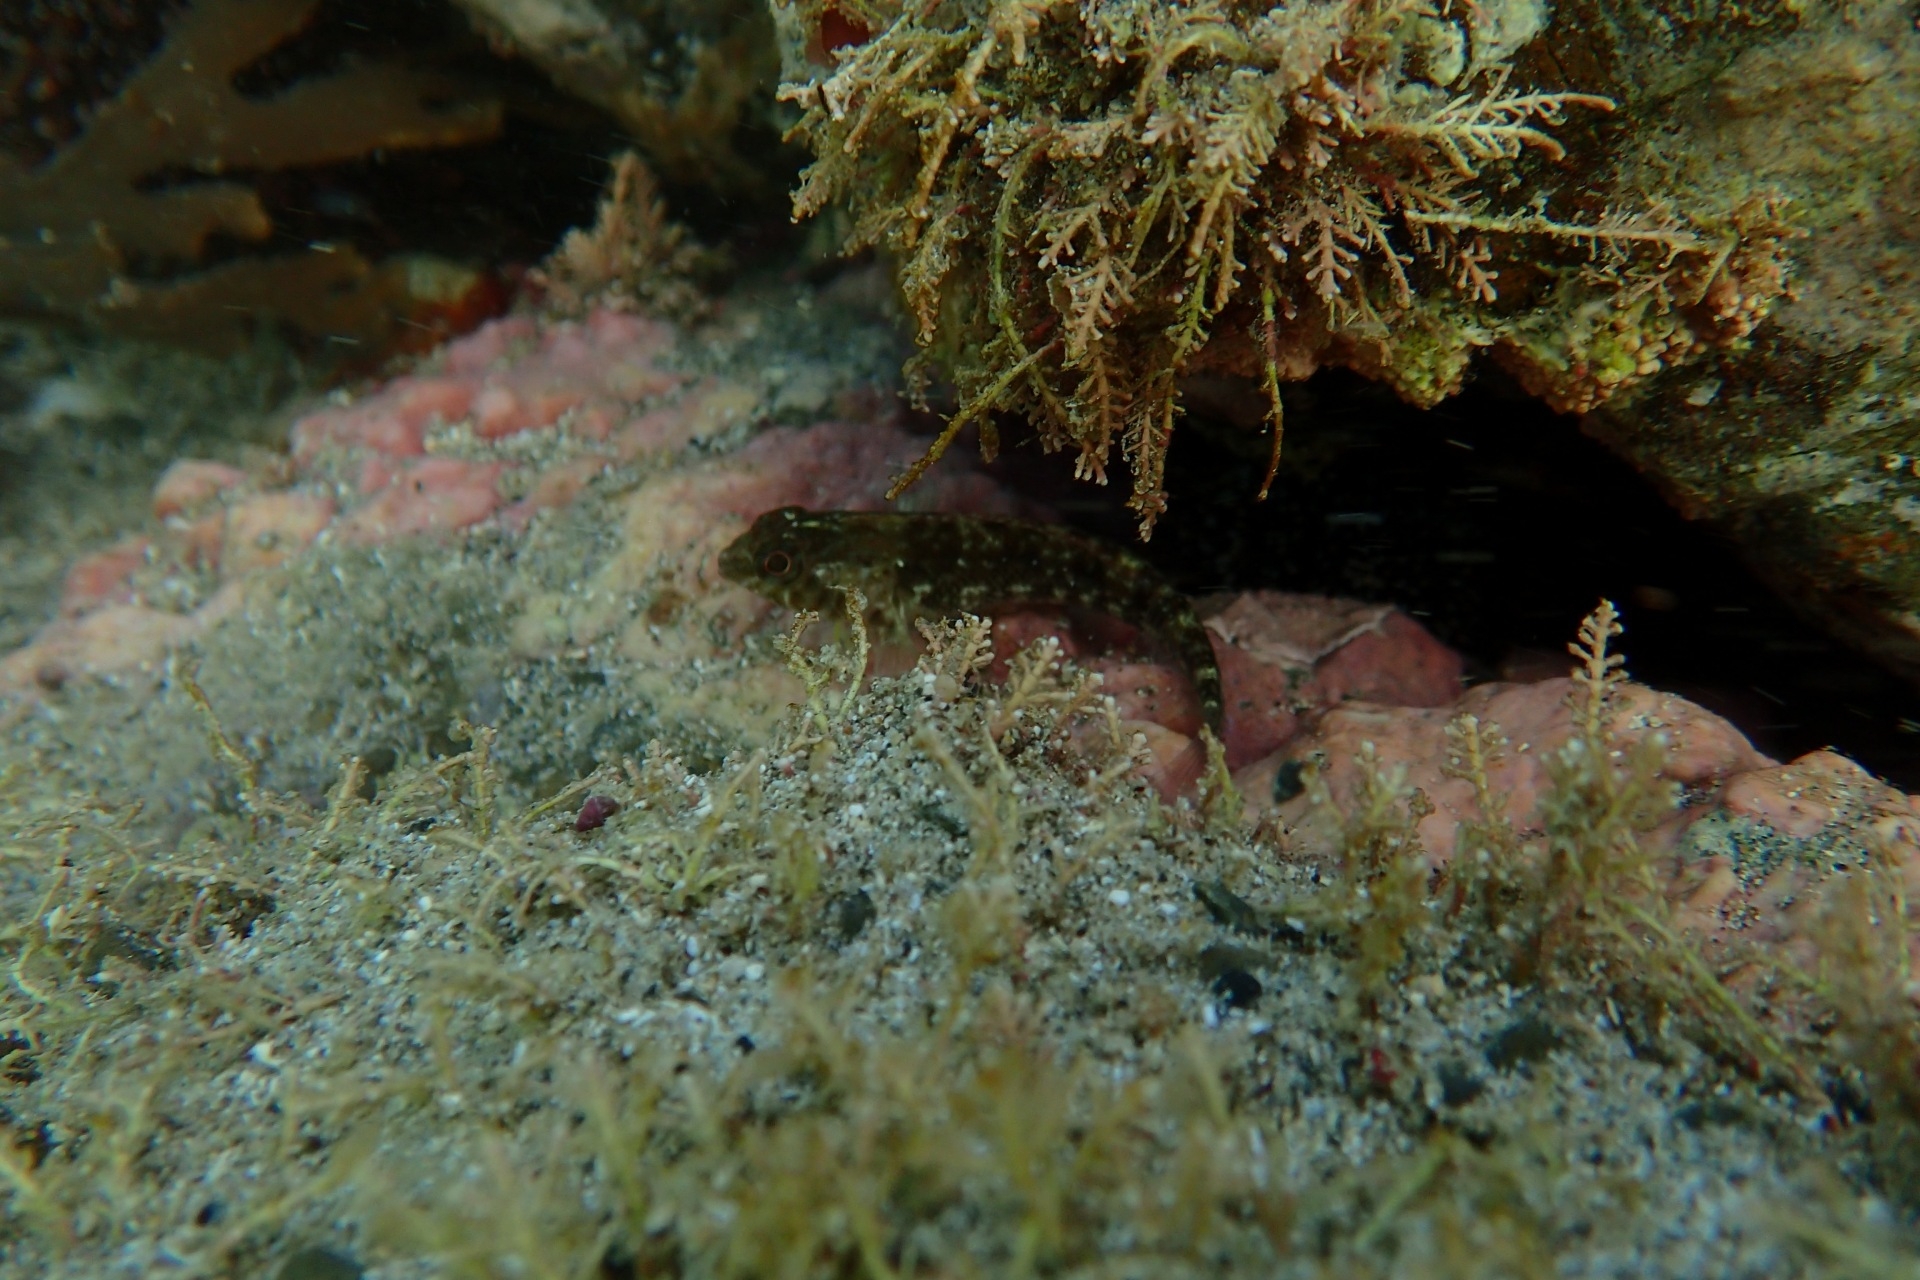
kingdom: Animalia
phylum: Chordata
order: Perciformes
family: Tripterygiidae
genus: Forsterygion
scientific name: Forsterygion lapillum
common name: Common triplefin
